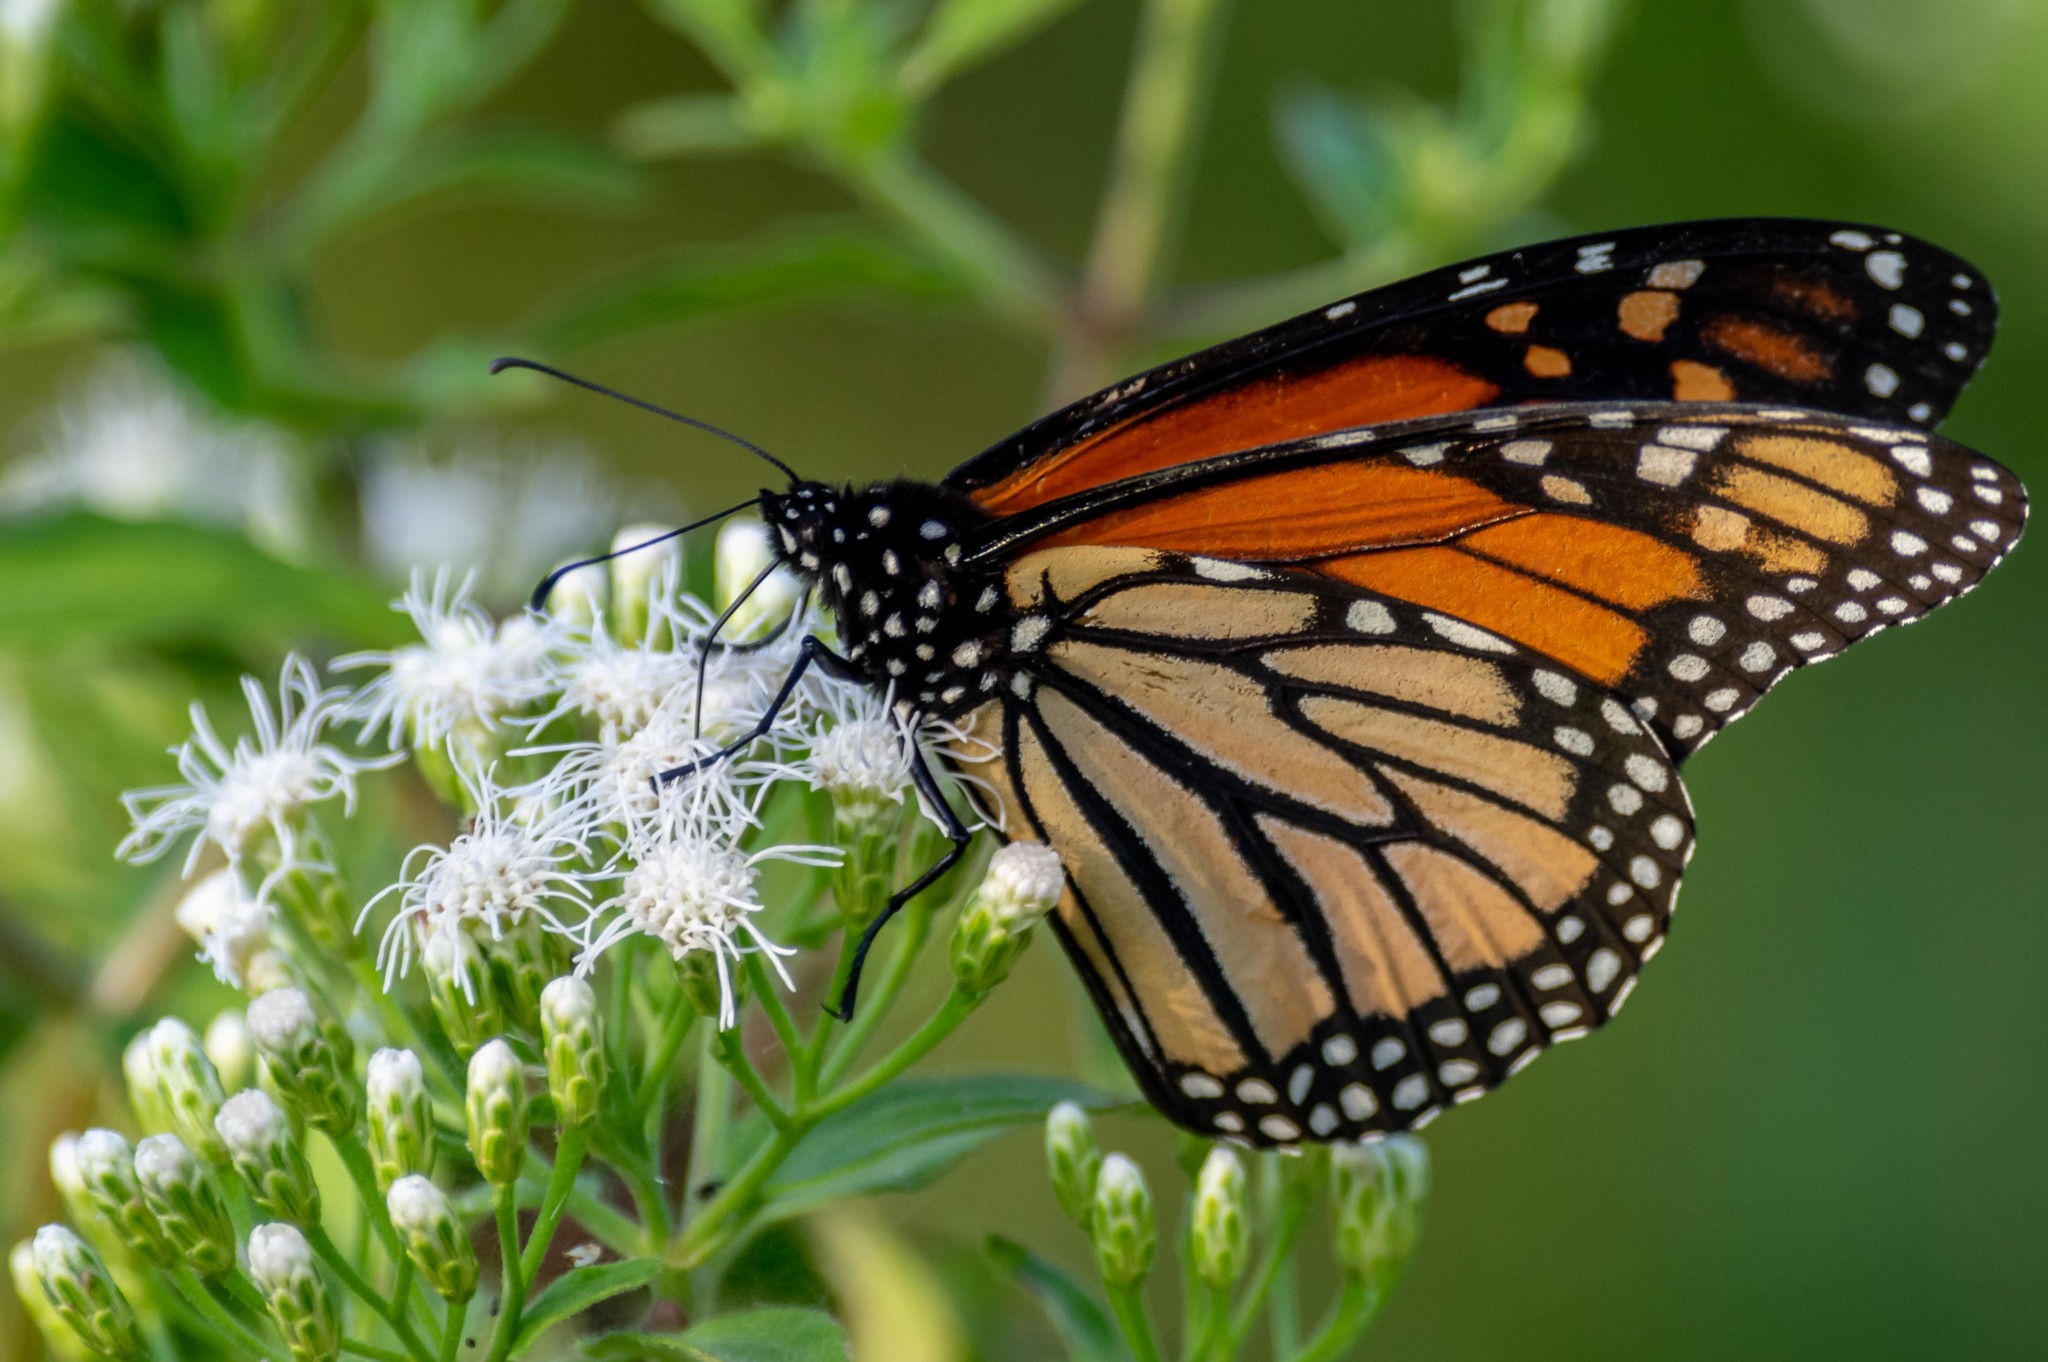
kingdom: Animalia
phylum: Arthropoda
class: Insecta
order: Lepidoptera
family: Nymphalidae
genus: Danaus
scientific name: Danaus plexippus
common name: Monarch
